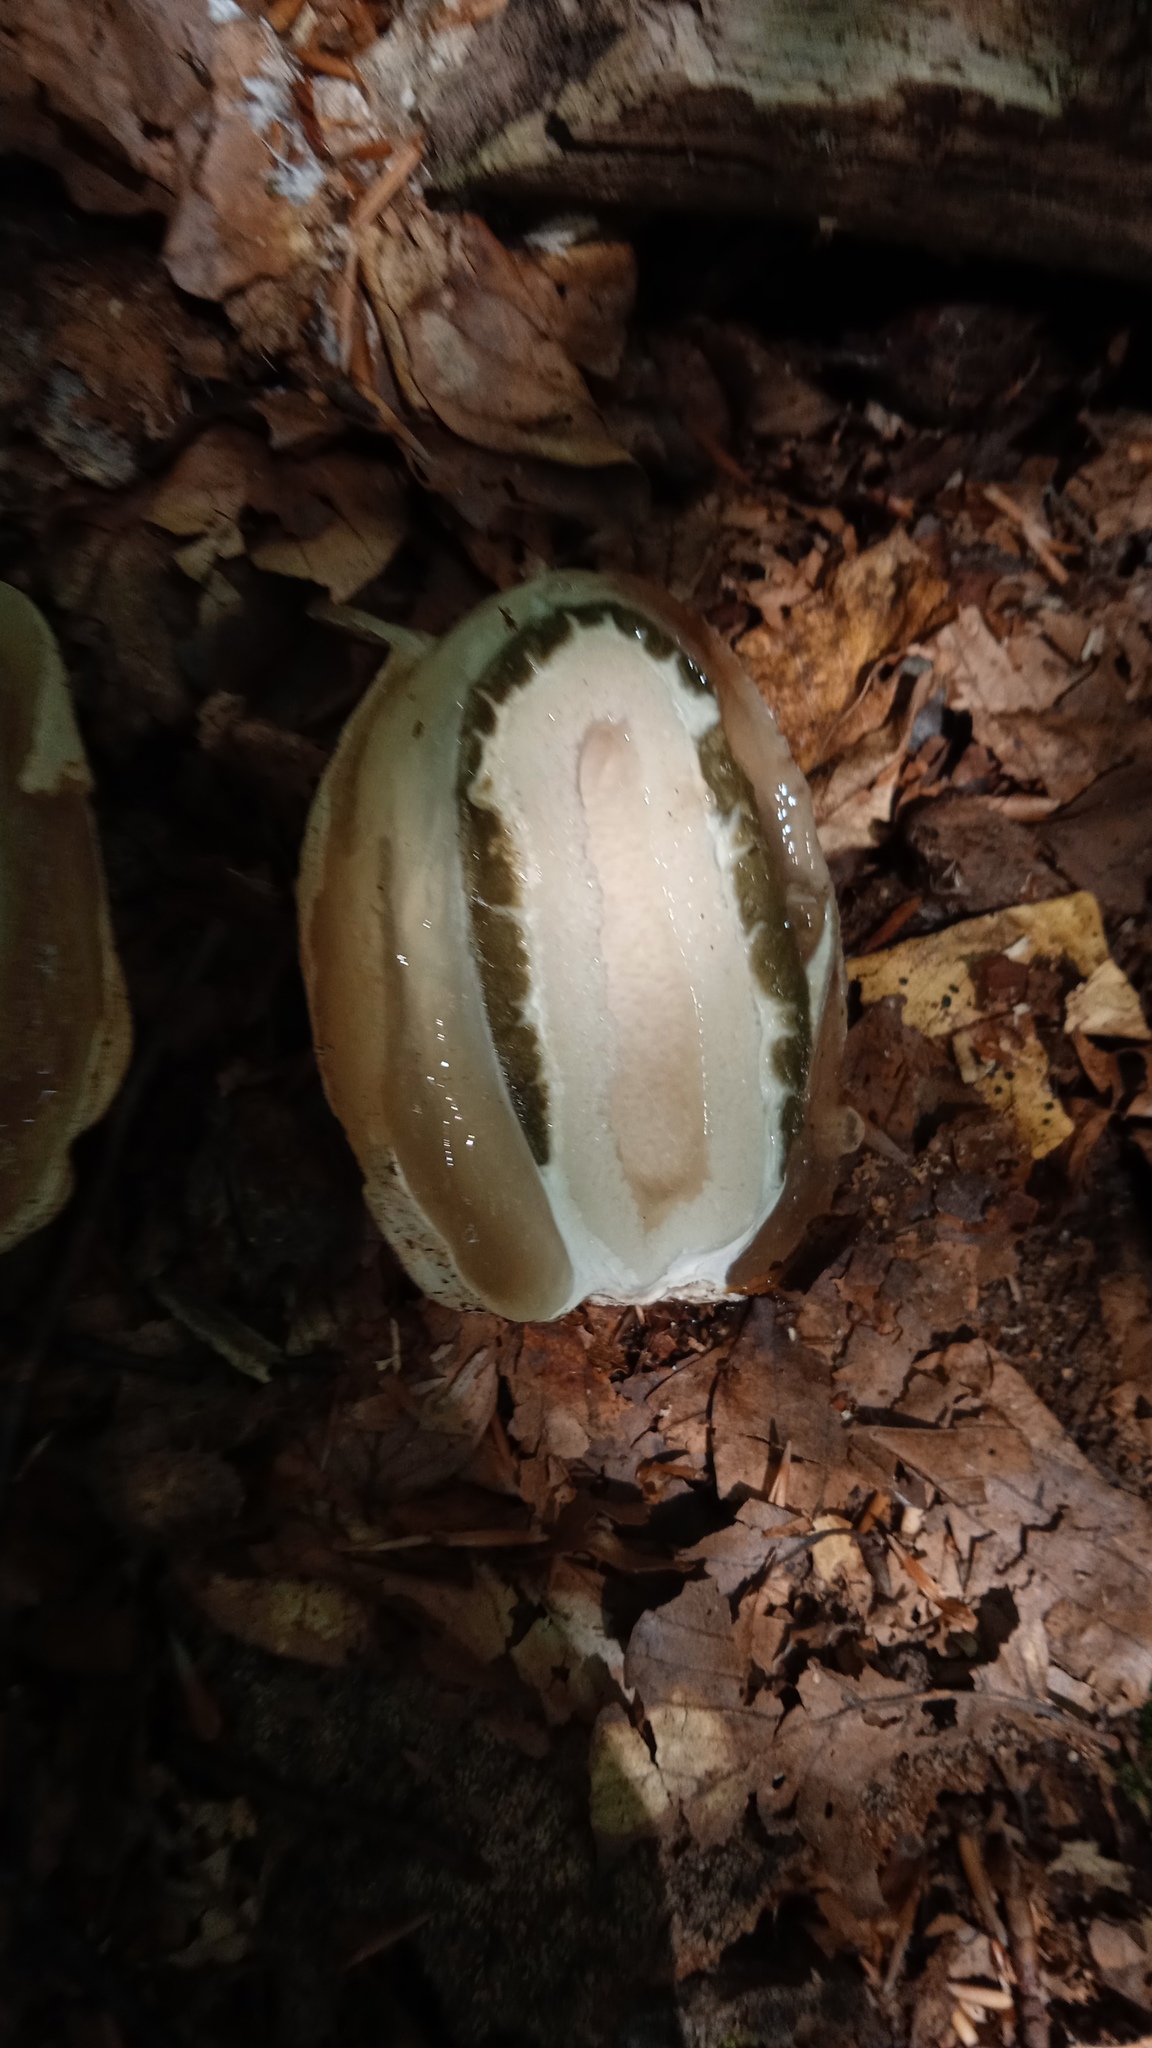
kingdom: Fungi
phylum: Basidiomycota
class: Agaricomycetes
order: Phallales
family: Phallaceae
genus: Phallus
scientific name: Phallus impudicus
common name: Common stinkhorn
